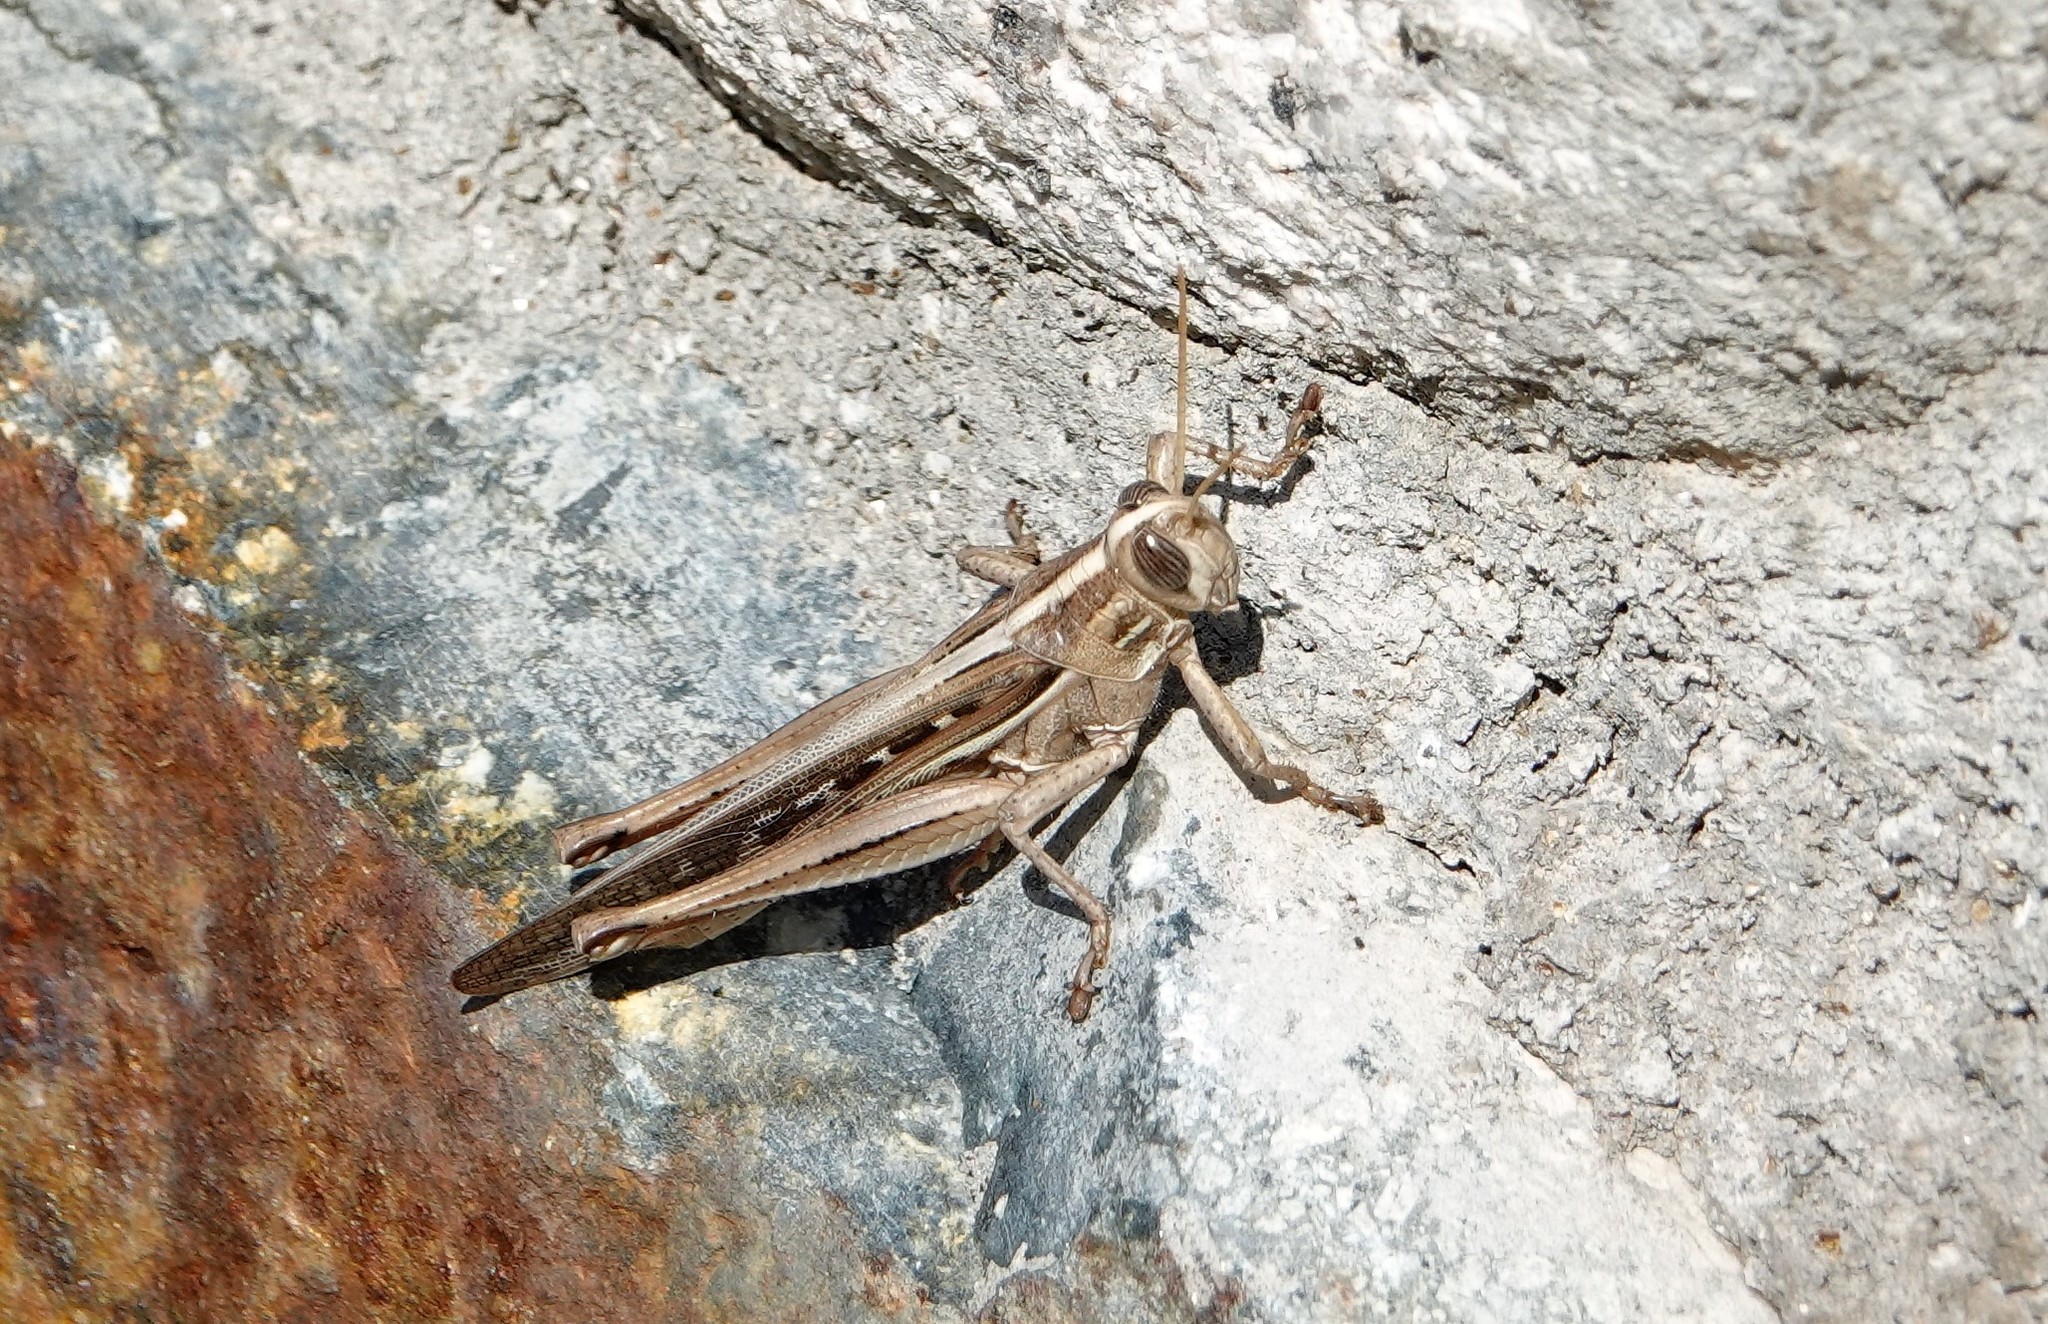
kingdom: Animalia
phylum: Arthropoda
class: Insecta
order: Orthoptera
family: Acrididae
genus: Schistocerca
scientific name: Schistocerca serialis
